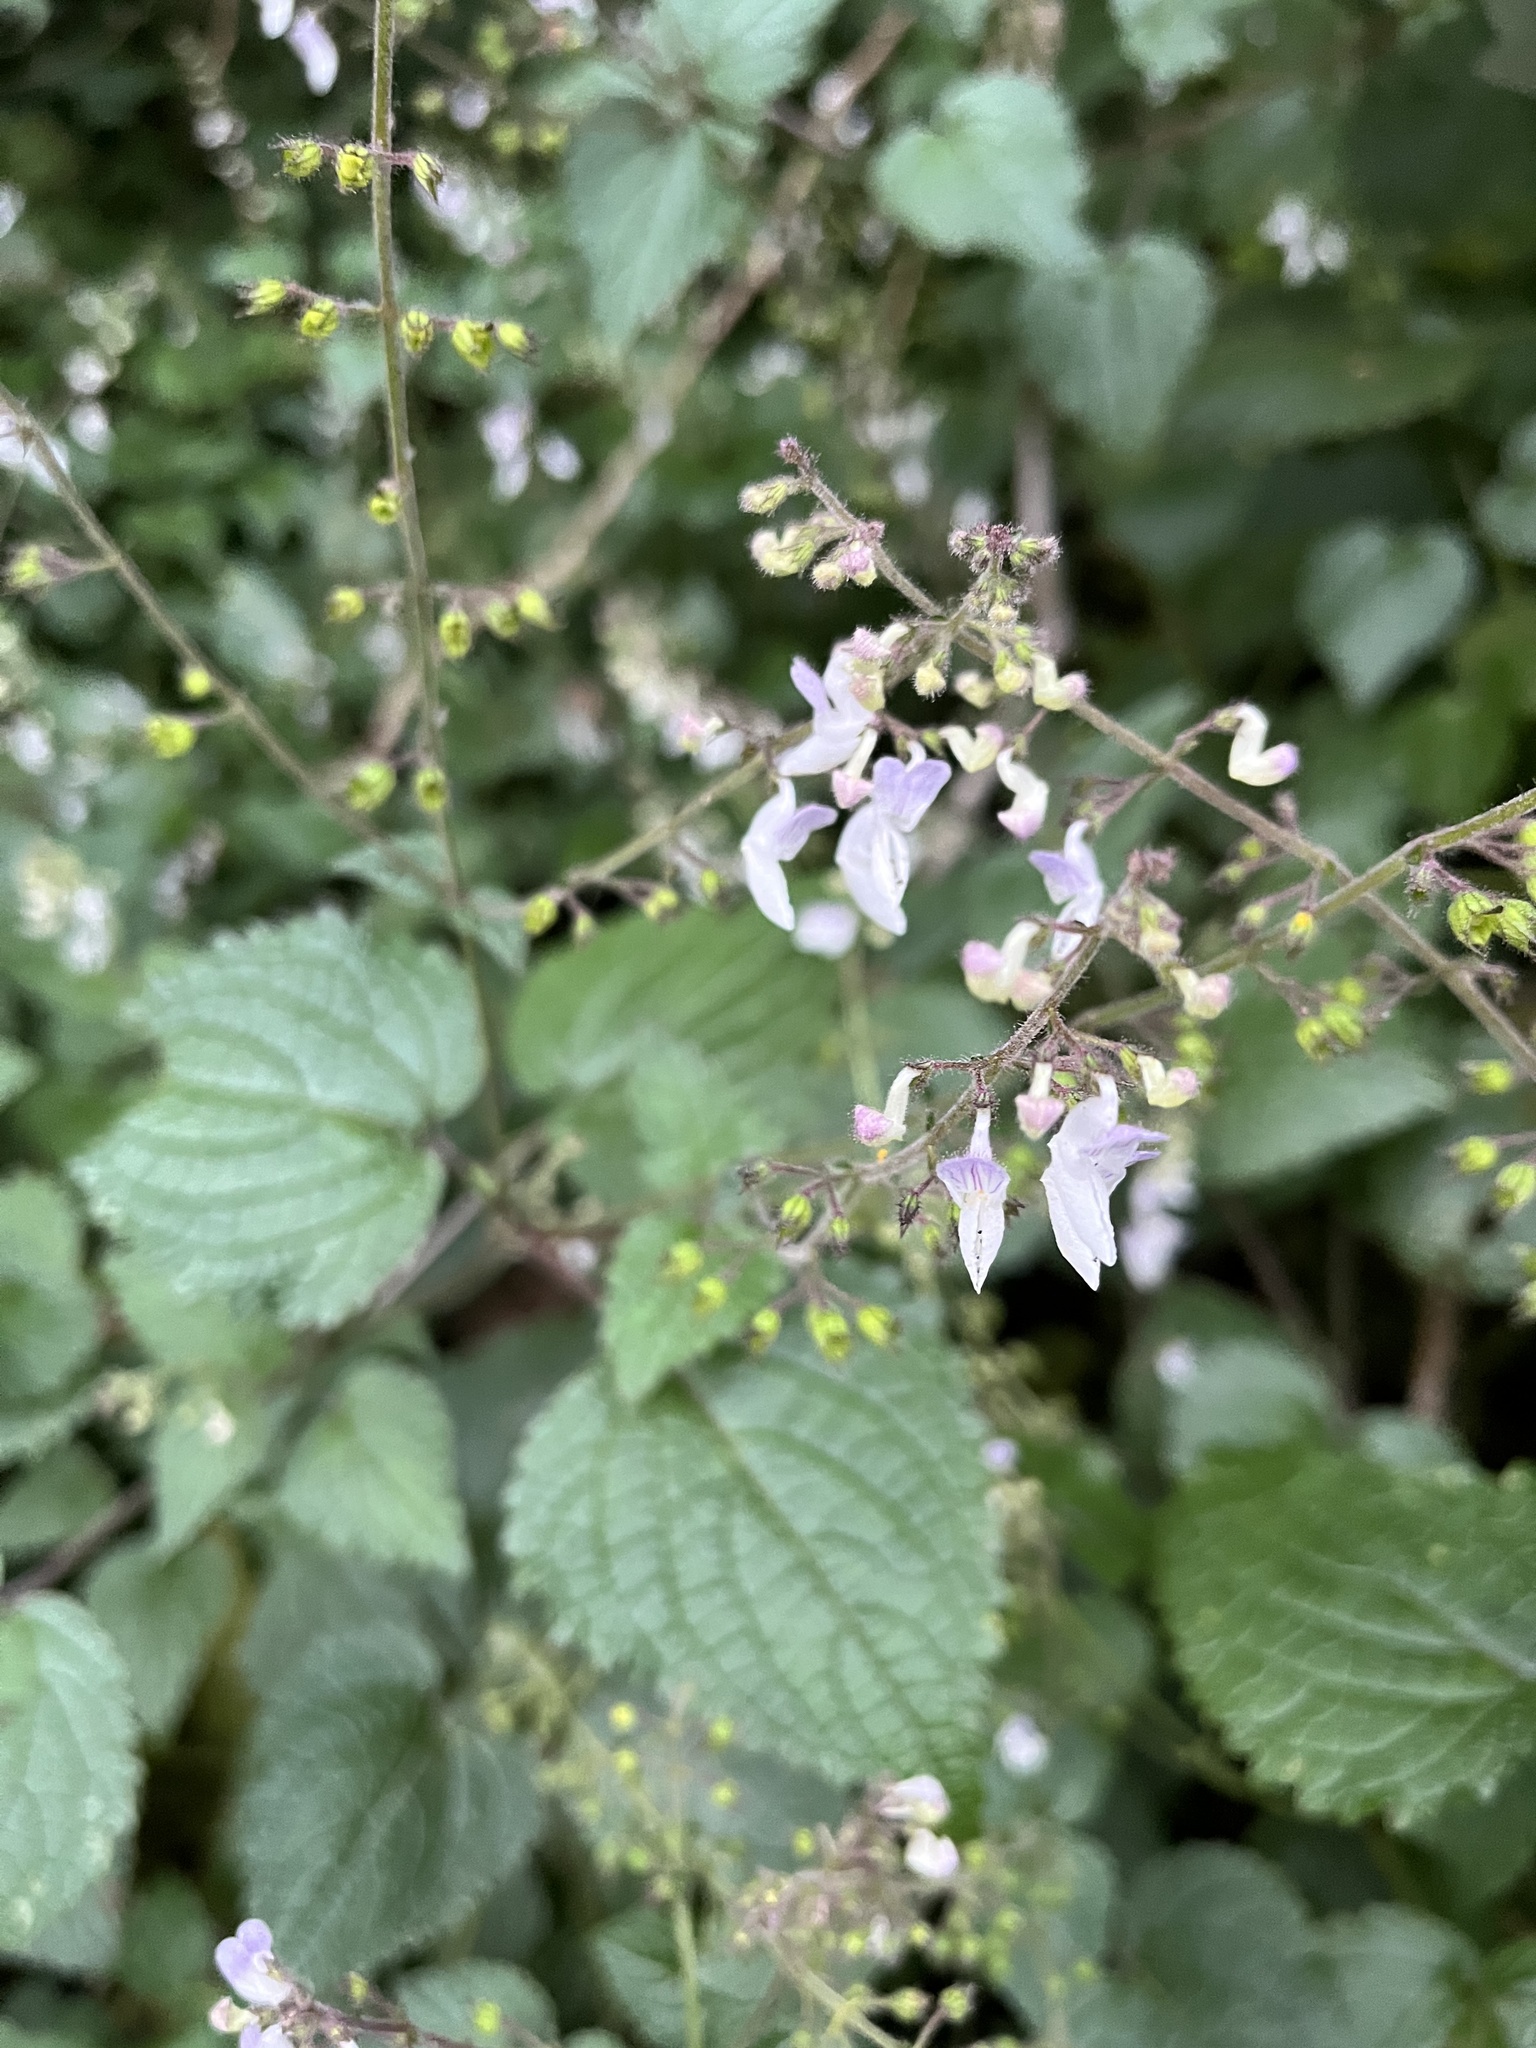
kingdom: Plantae
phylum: Tracheophyta
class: Magnoliopsida
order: Lamiales
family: Lamiaceae
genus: Equilabium
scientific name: Equilabium laxiflorum
